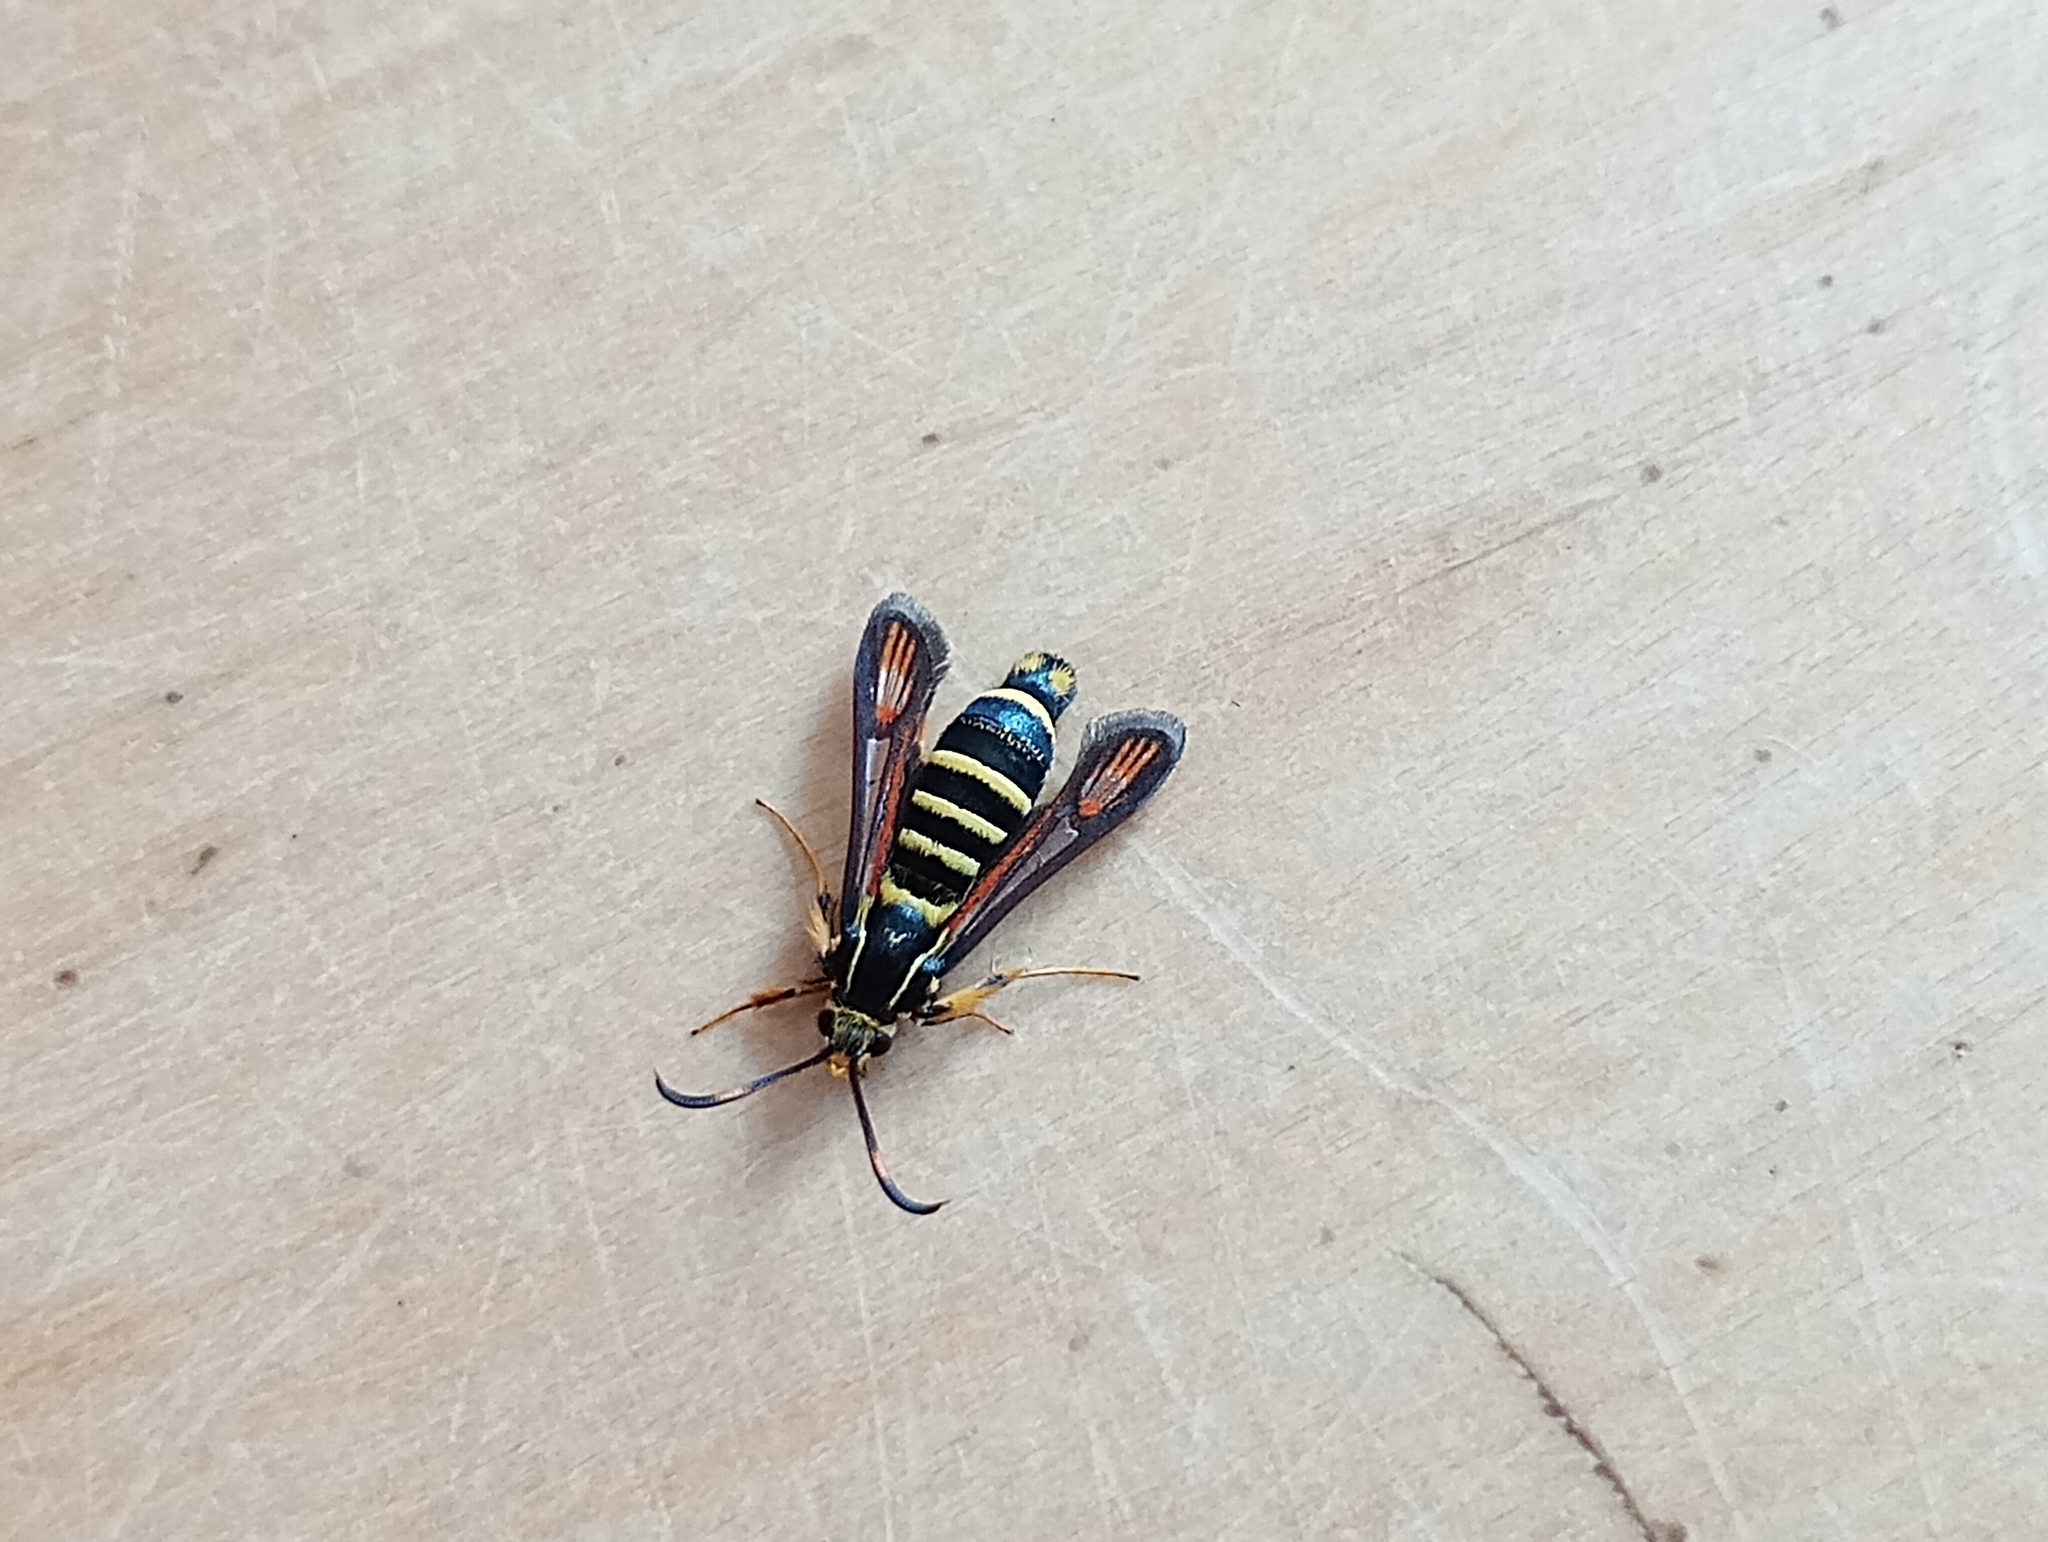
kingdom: Animalia
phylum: Arthropoda
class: Insecta
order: Lepidoptera
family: Sesiidae
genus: Bembecia
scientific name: Bembecia ichneumoniformis
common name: Six-belted clearwing
